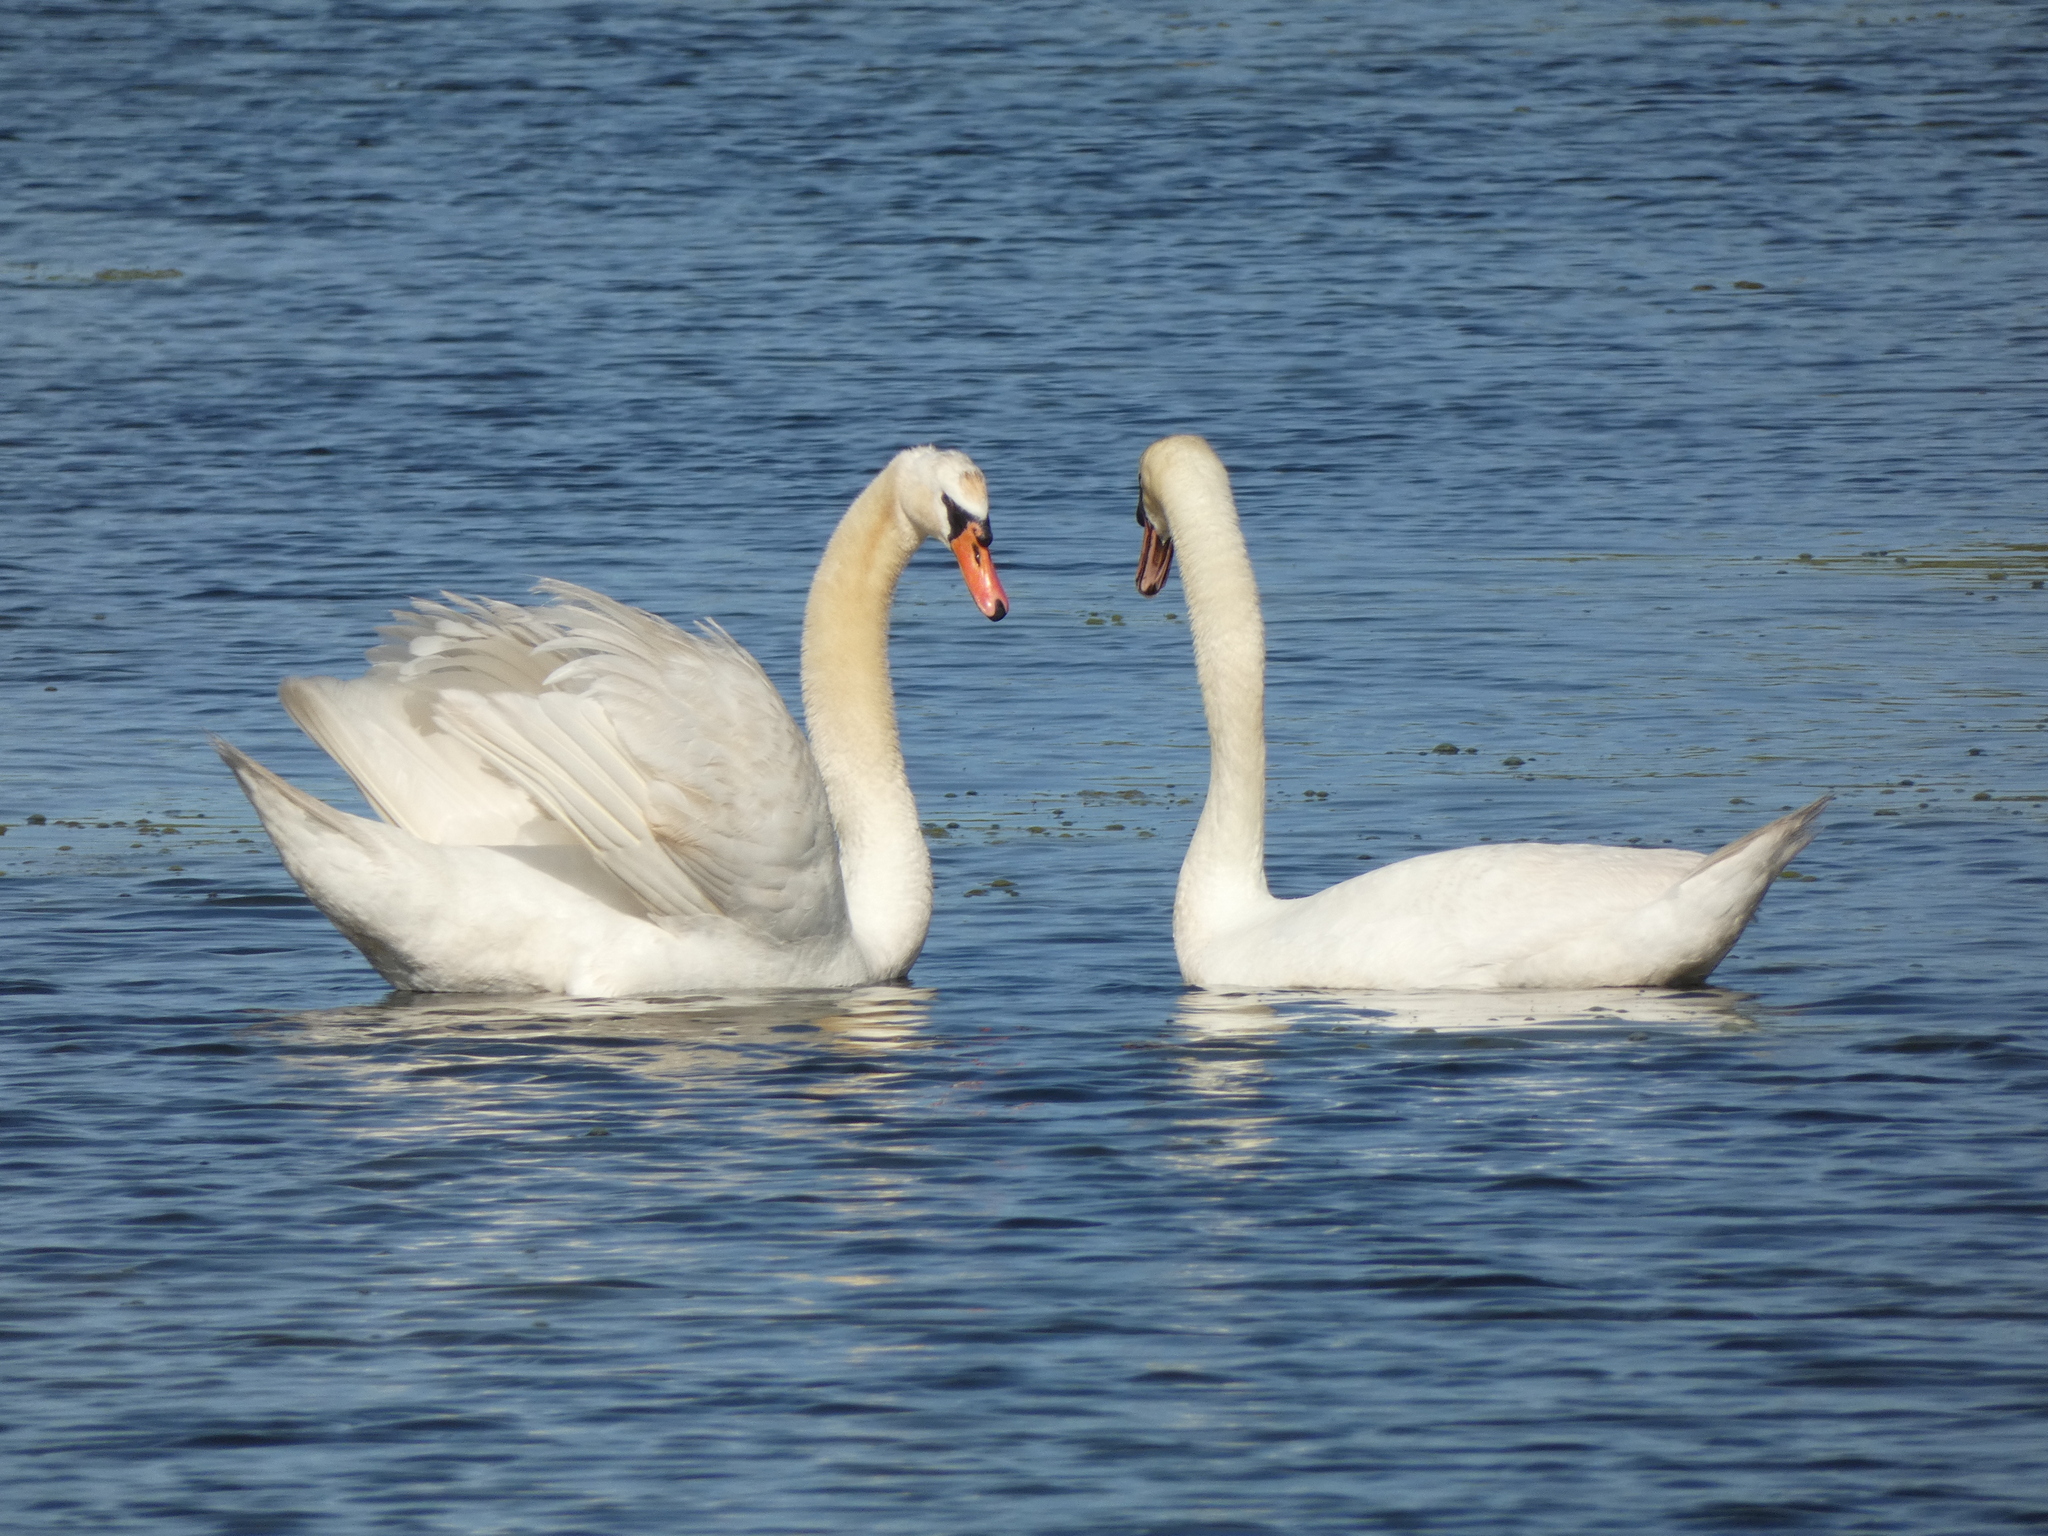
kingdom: Animalia
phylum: Chordata
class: Aves
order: Anseriformes
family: Anatidae
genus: Cygnus
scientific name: Cygnus olor
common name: Mute swan
